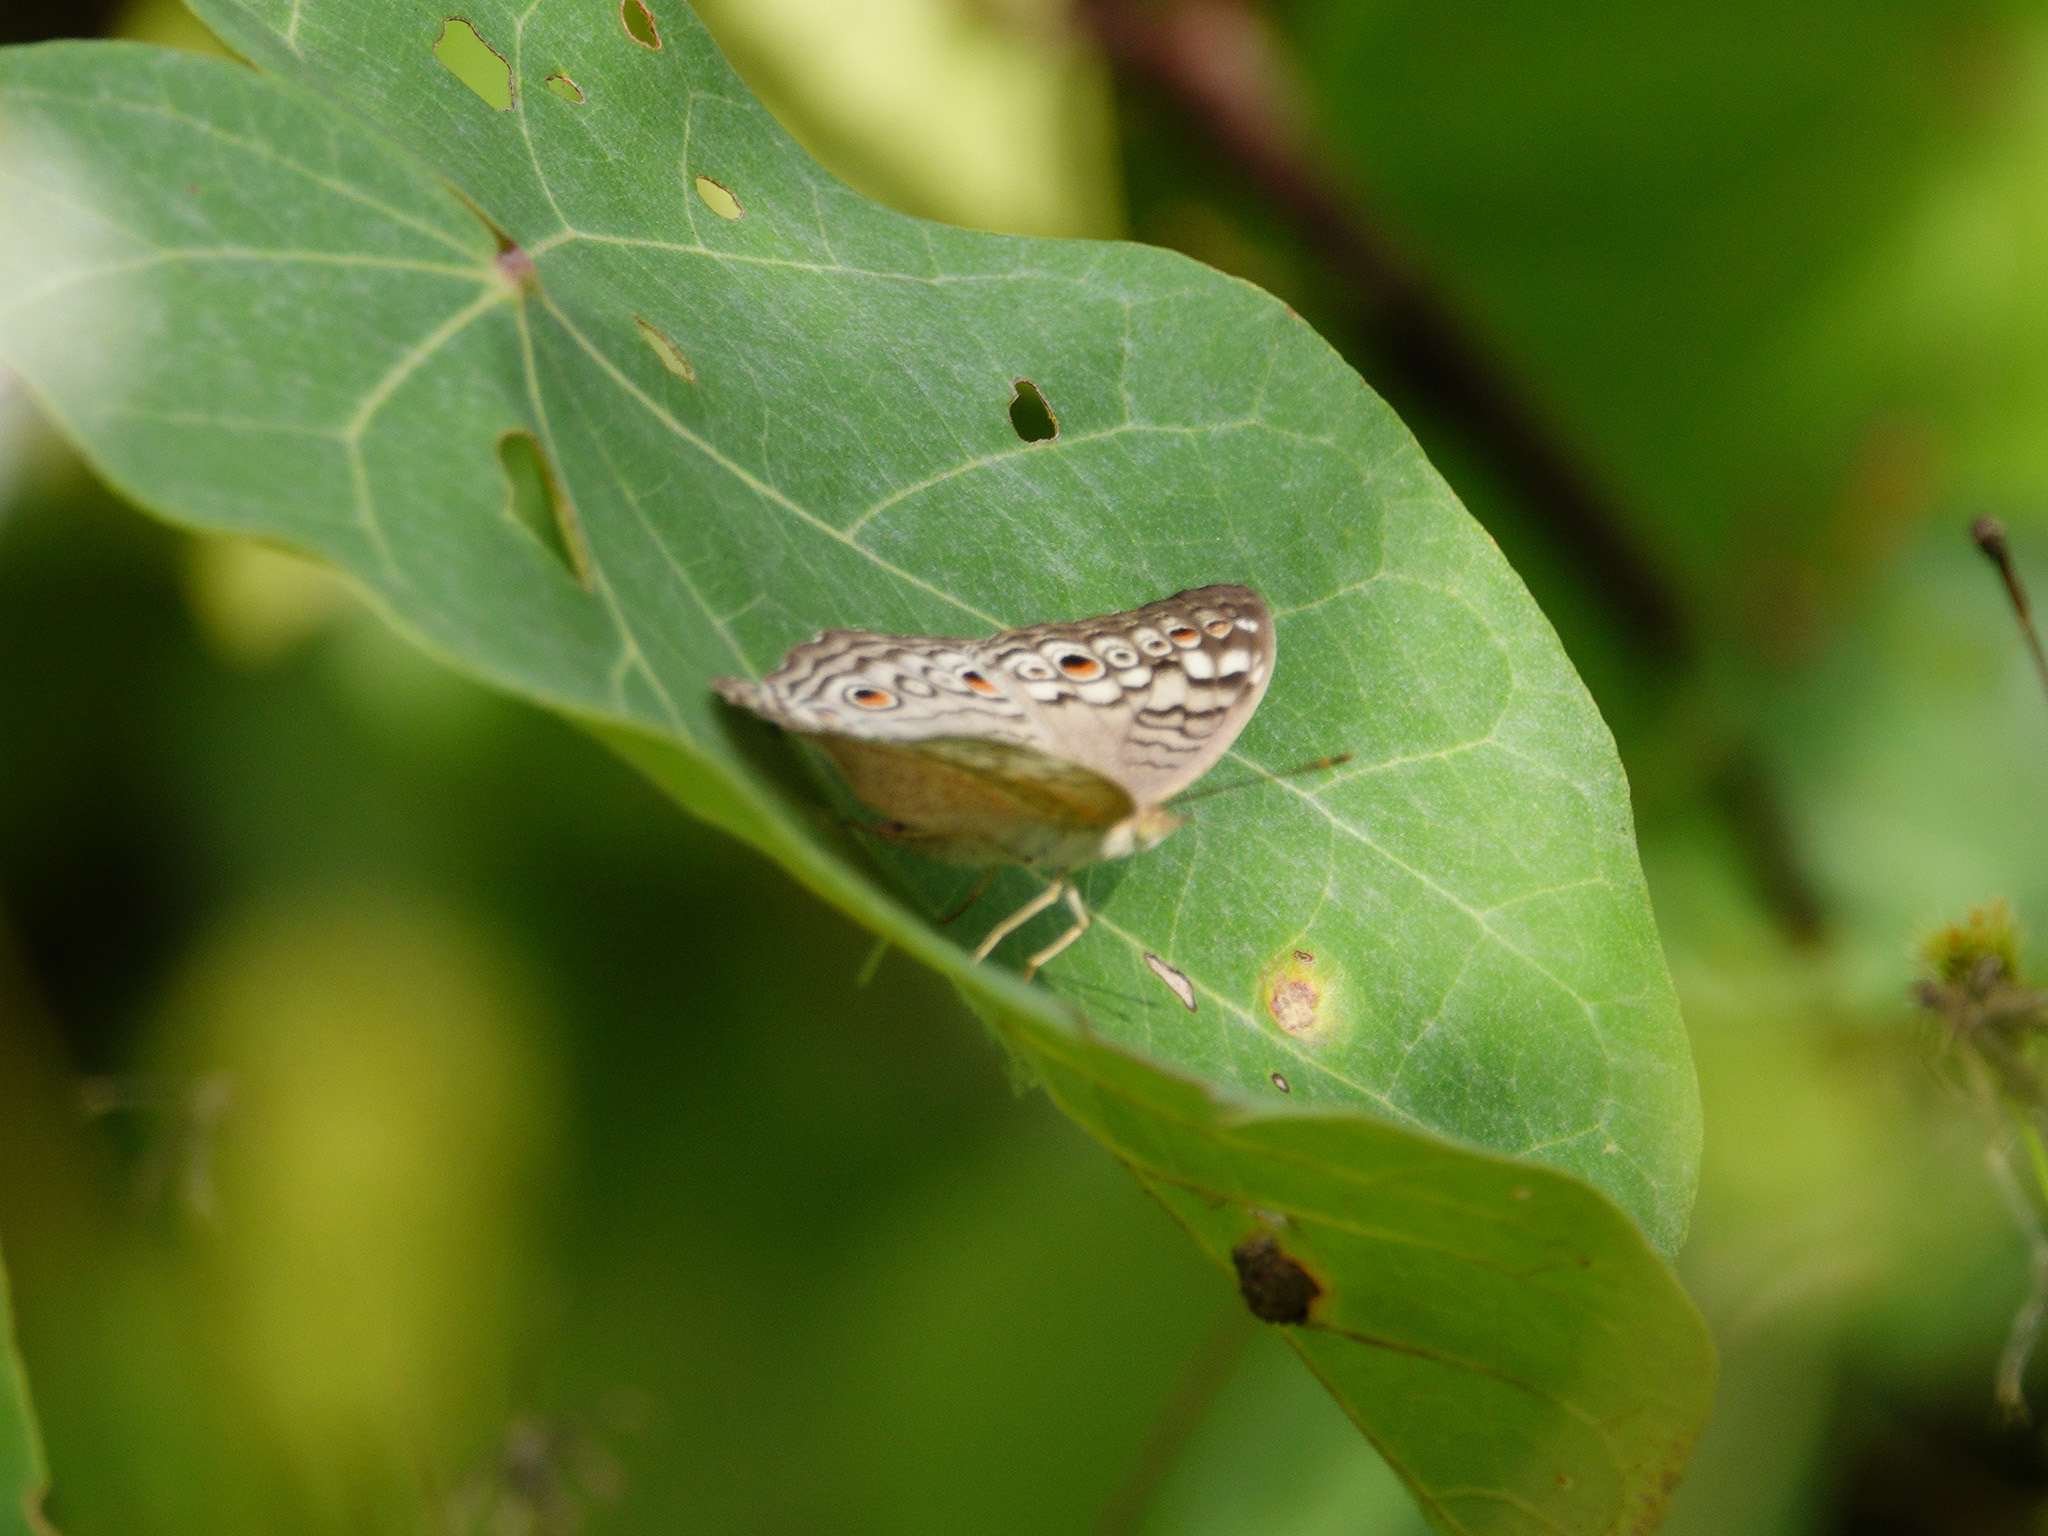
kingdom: Animalia
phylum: Arthropoda
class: Insecta
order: Lepidoptera
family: Nymphalidae
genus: Junonia
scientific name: Junonia atlites
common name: Grey pansy
